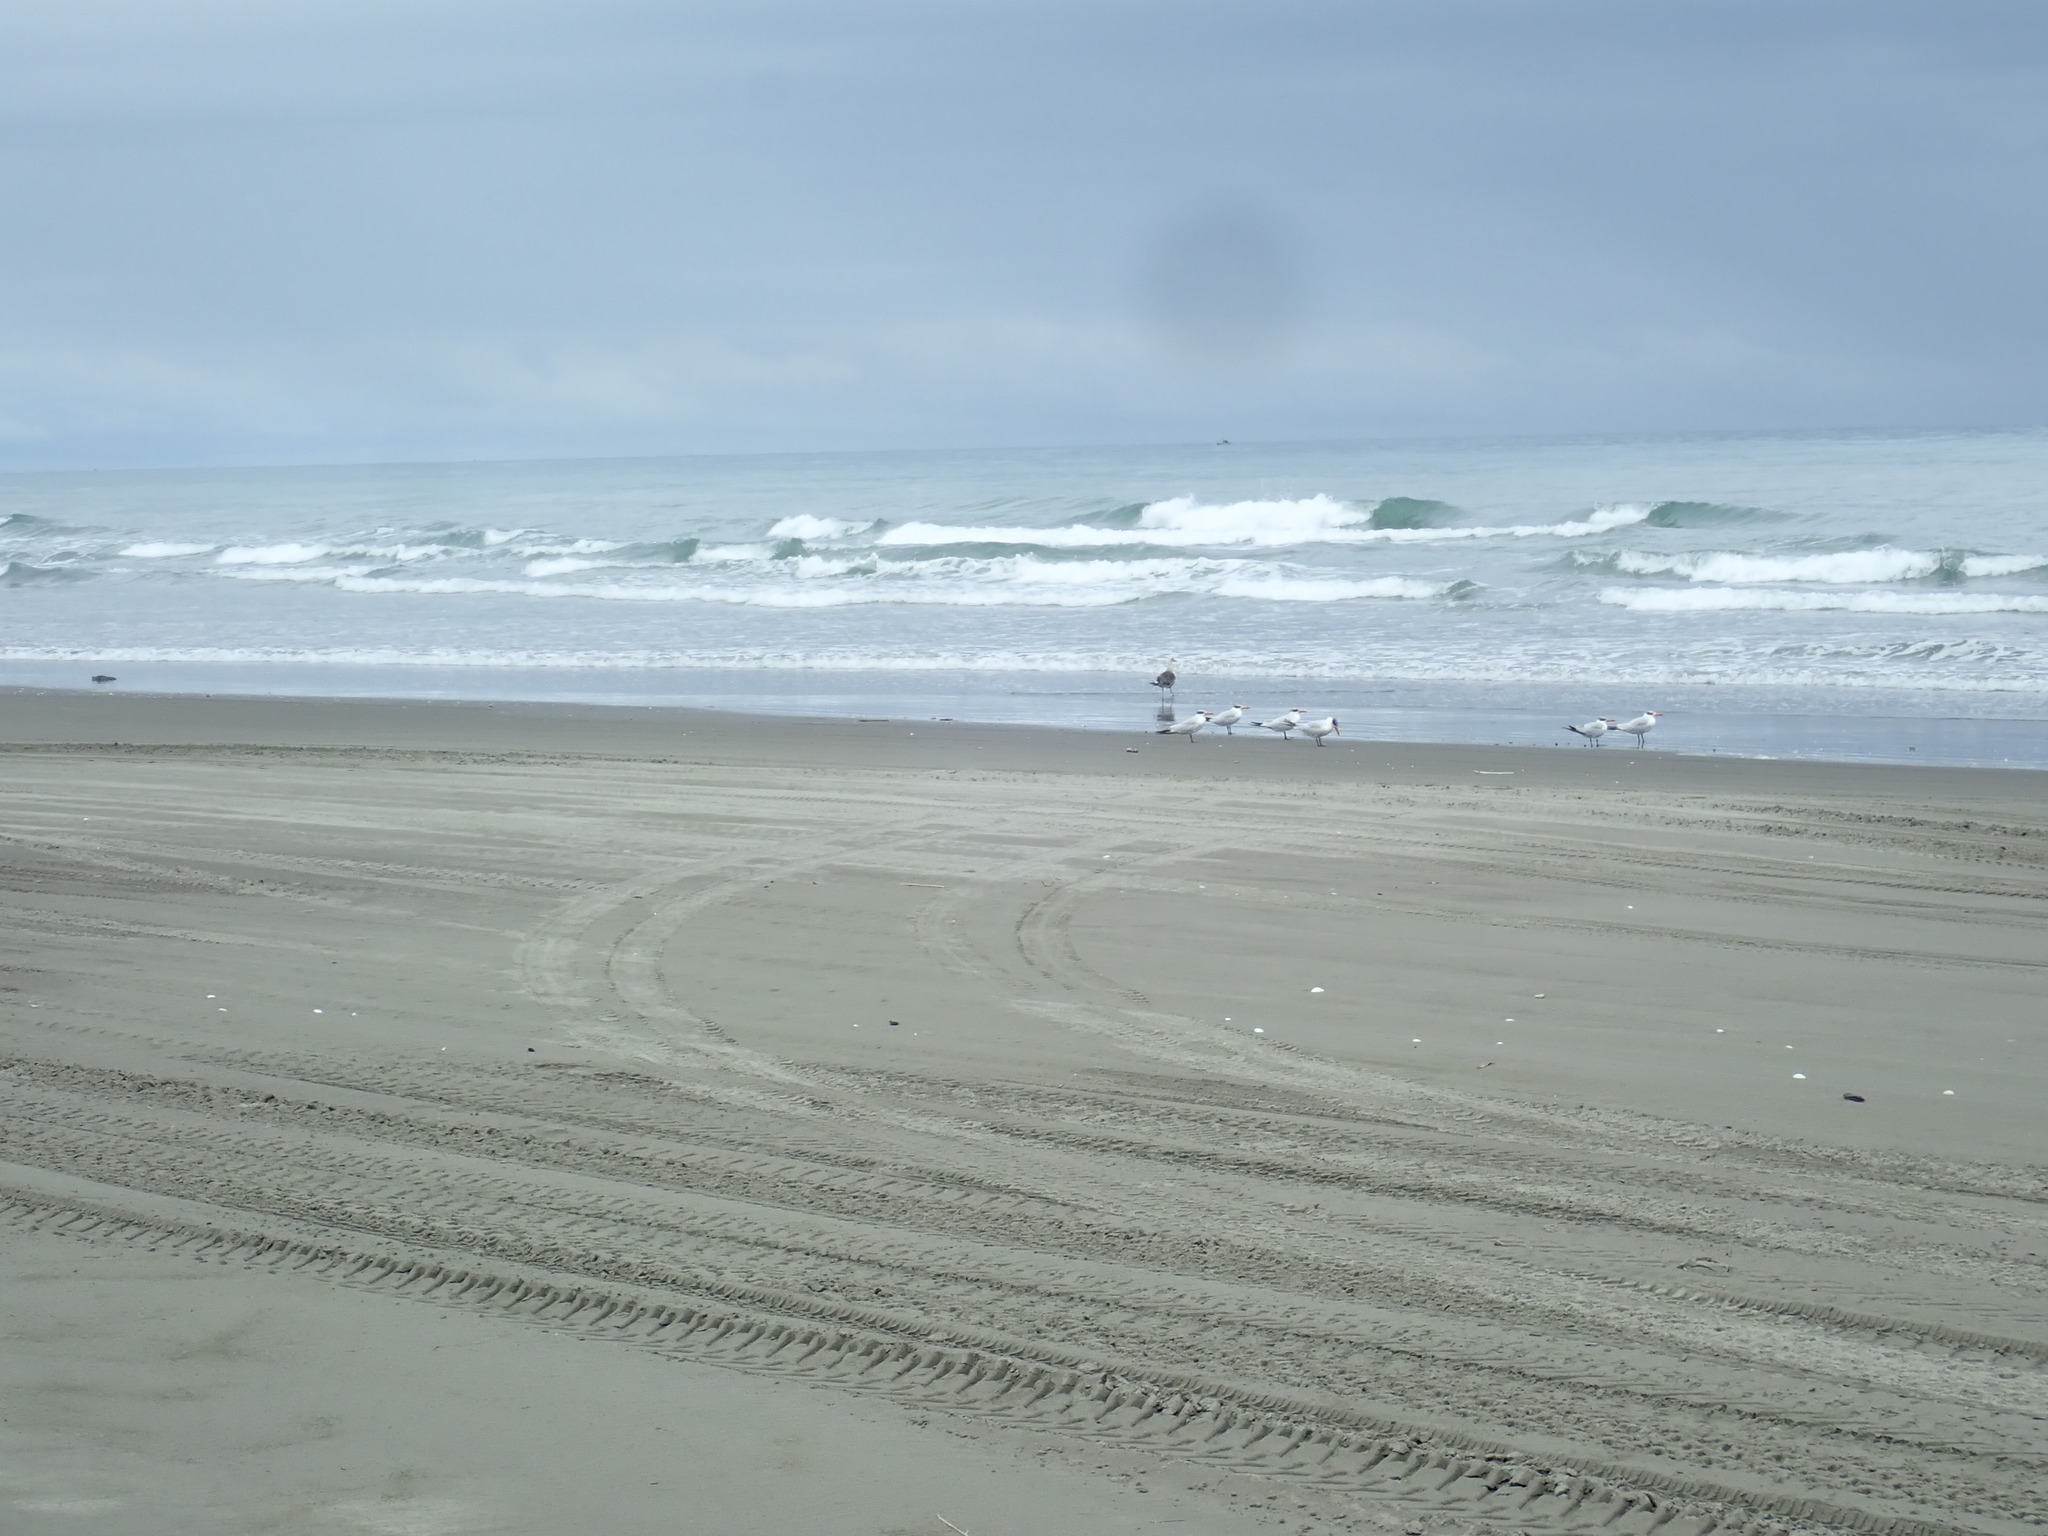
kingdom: Animalia
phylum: Chordata
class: Aves
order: Charadriiformes
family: Laridae
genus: Hydroprogne
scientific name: Hydroprogne caspia
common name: Caspian tern
